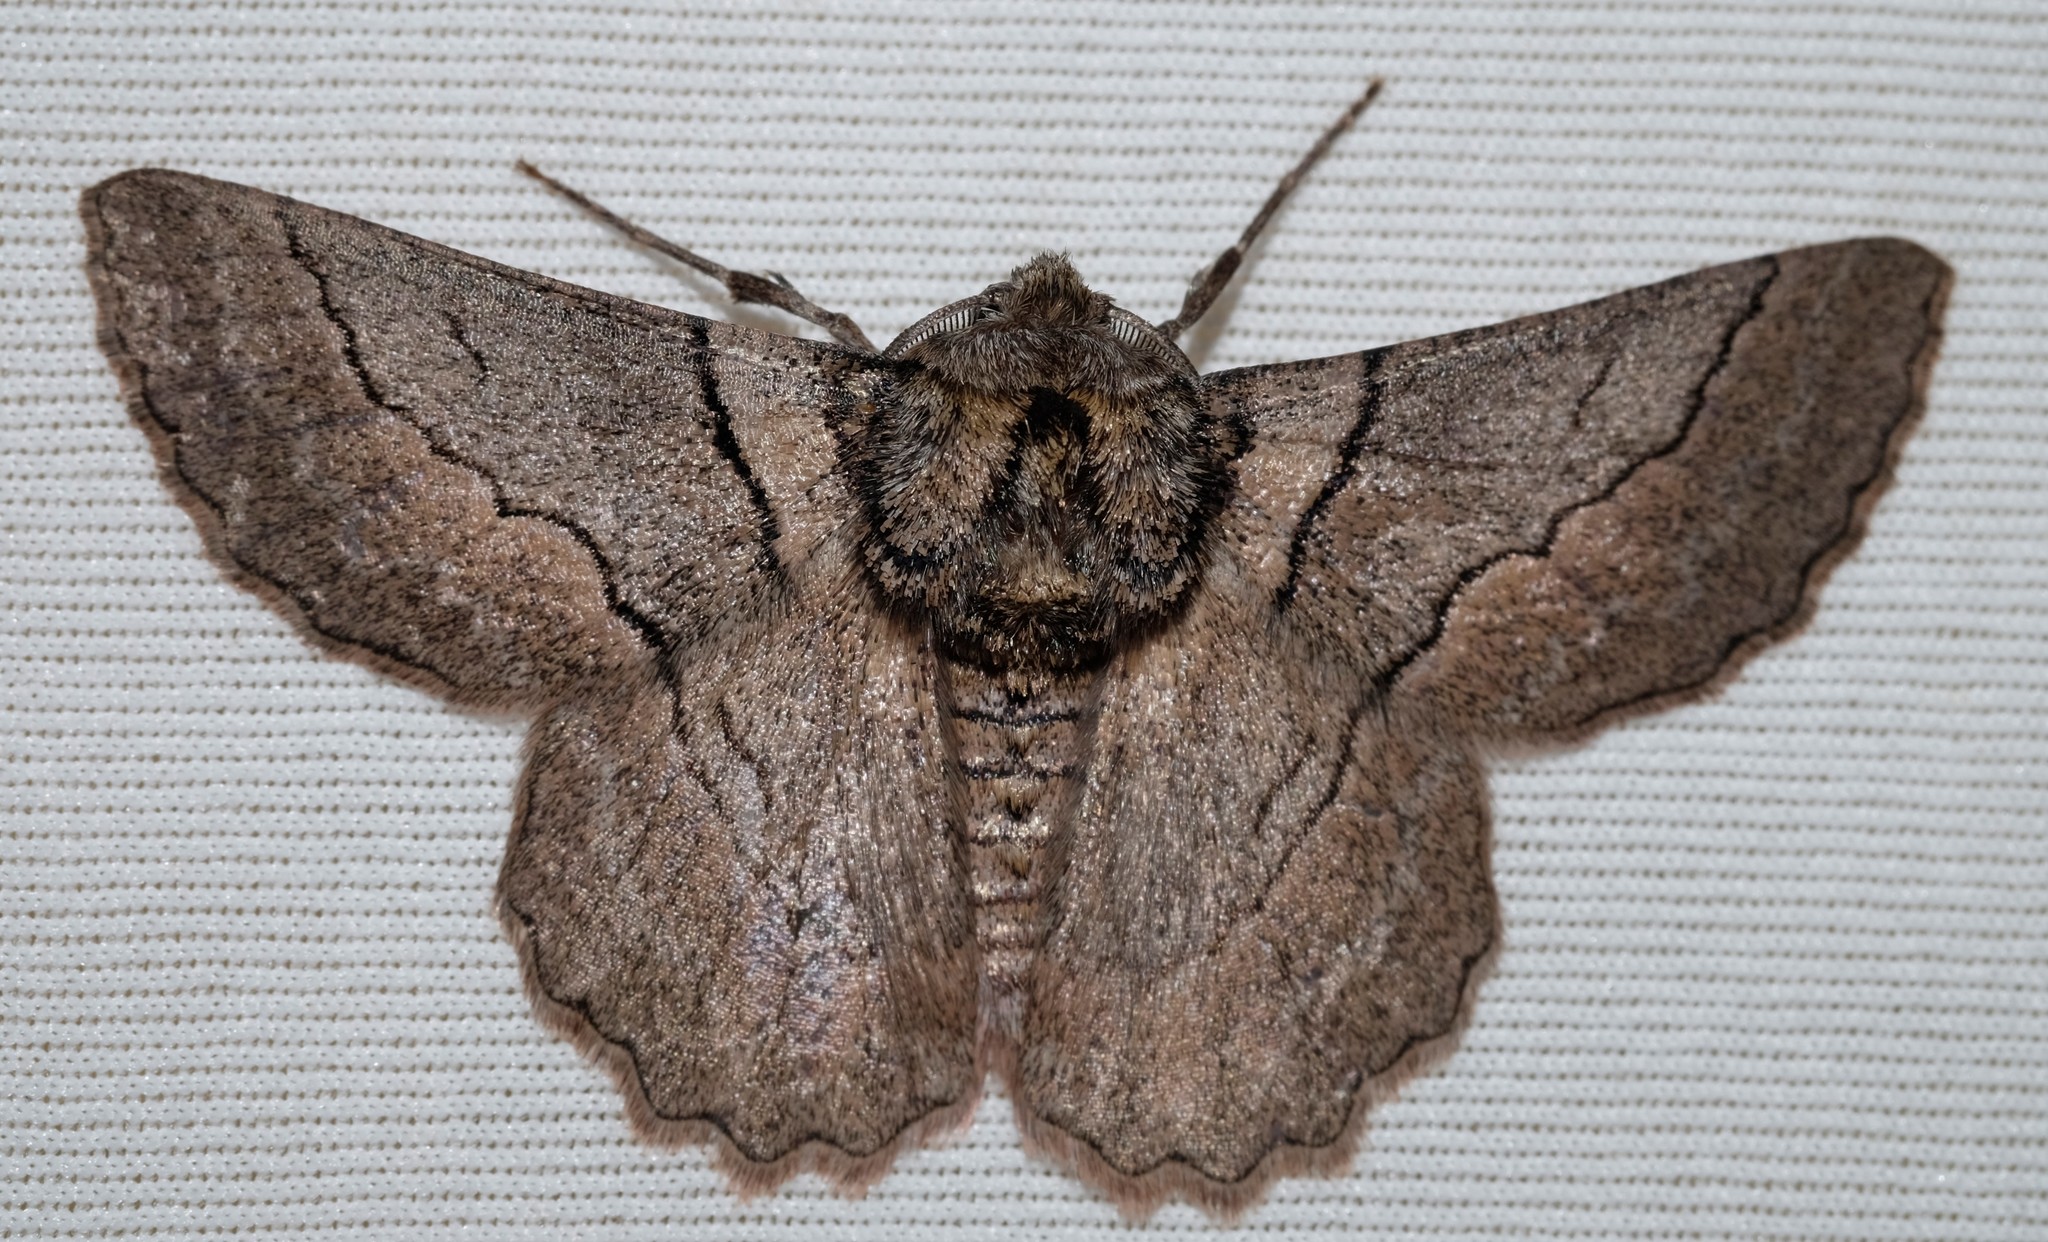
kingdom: Animalia
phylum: Arthropoda
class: Insecta
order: Lepidoptera
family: Geometridae
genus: Hypobapta
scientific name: Hypobapta tachyhalotaria
